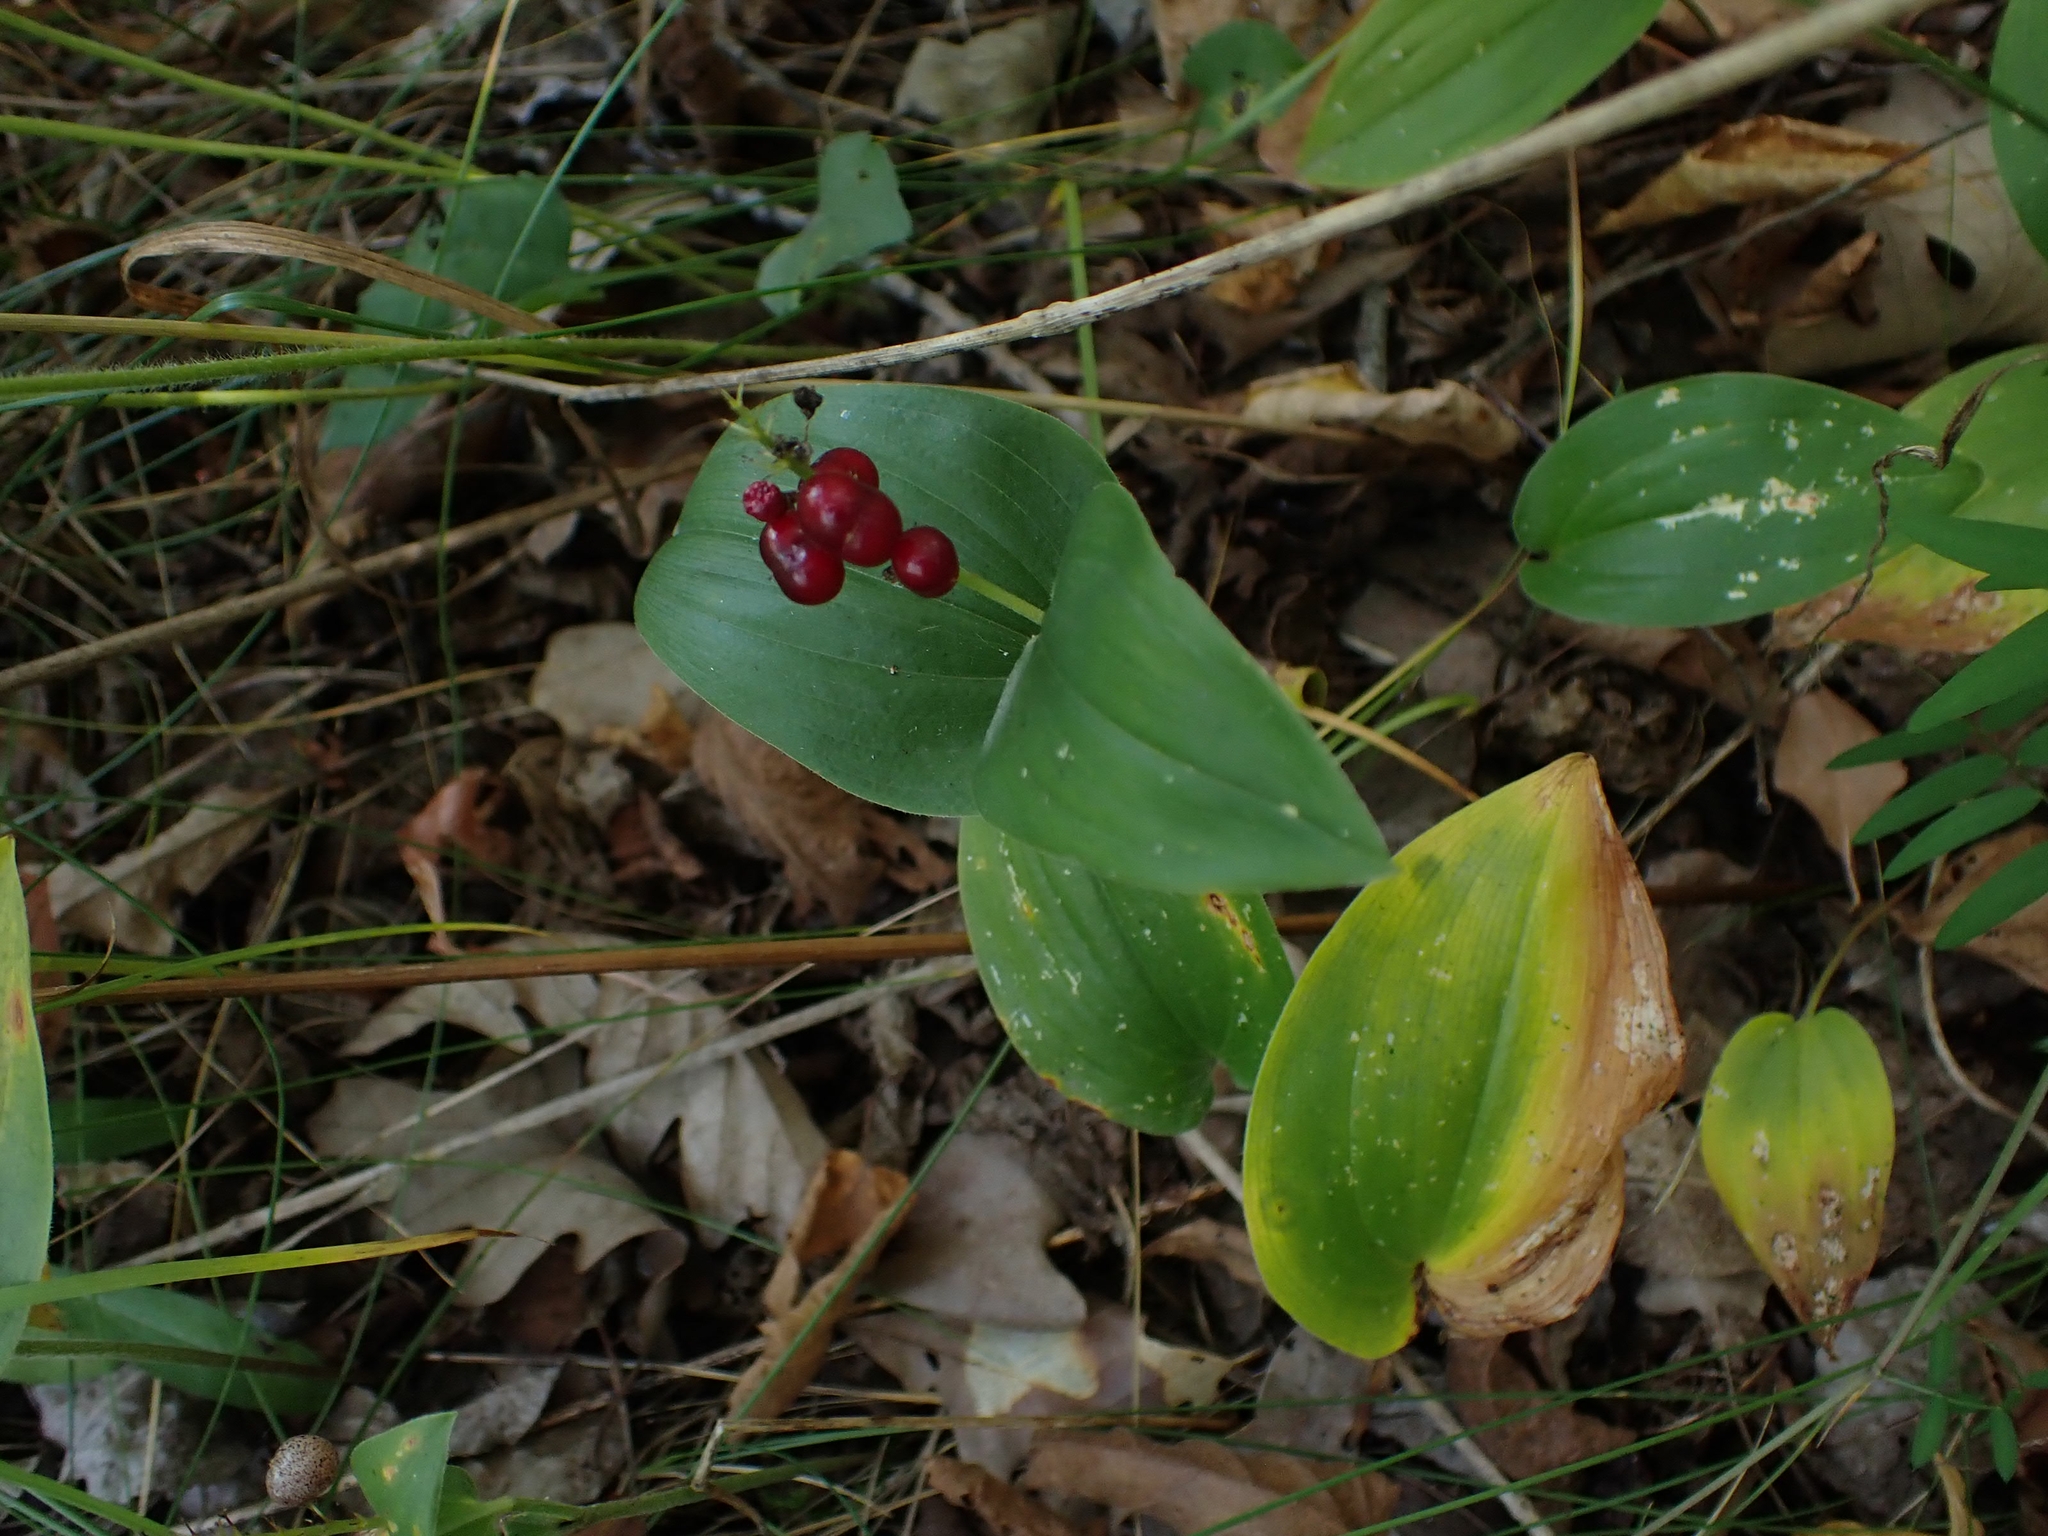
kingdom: Plantae
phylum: Tracheophyta
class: Liliopsida
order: Asparagales
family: Asparagaceae
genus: Maianthemum
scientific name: Maianthemum canadense
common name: False lily-of-the-valley
